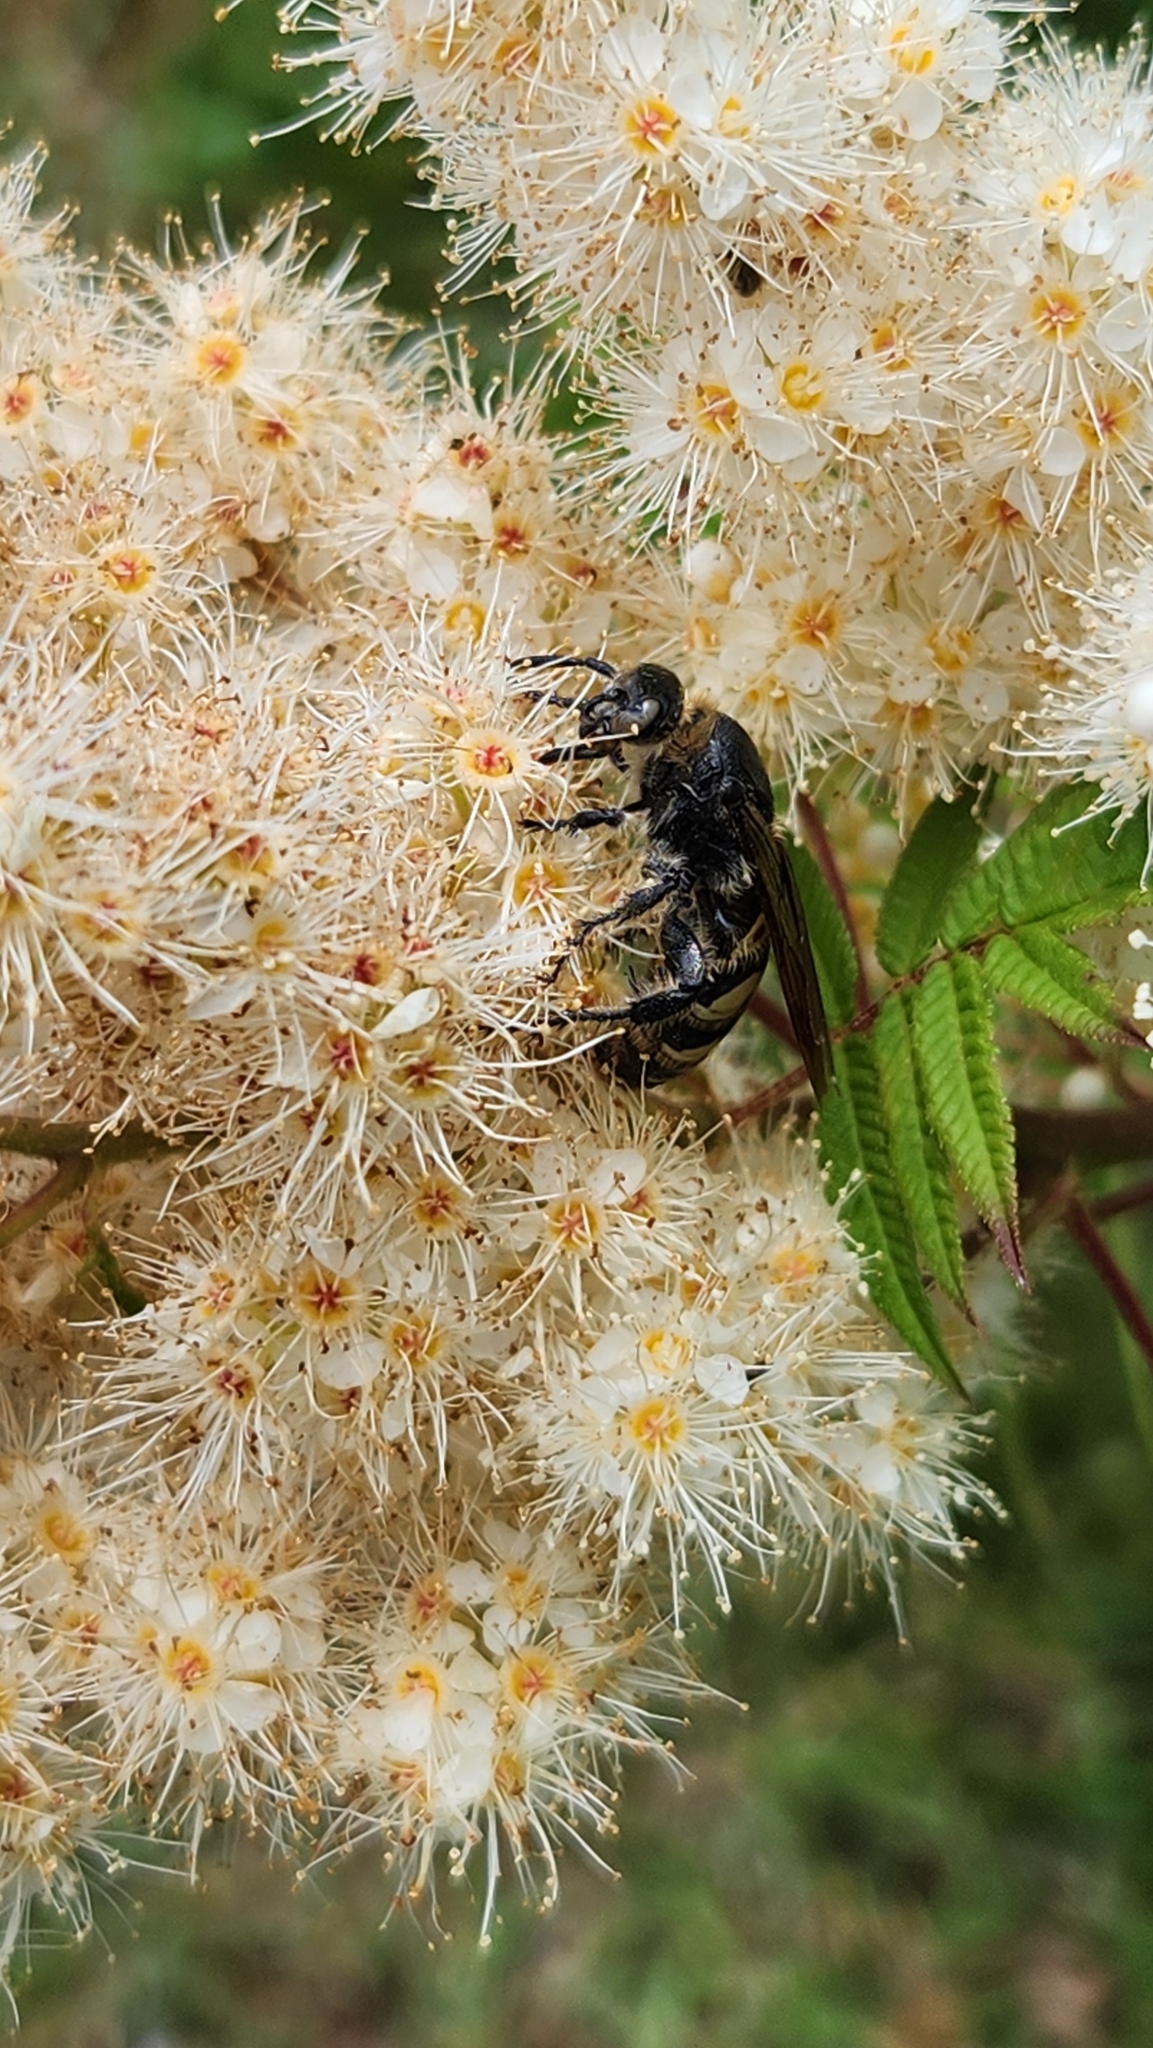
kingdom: Animalia
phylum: Arthropoda
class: Insecta
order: Hymenoptera
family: Scoliidae
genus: Dielis
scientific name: Dielis
